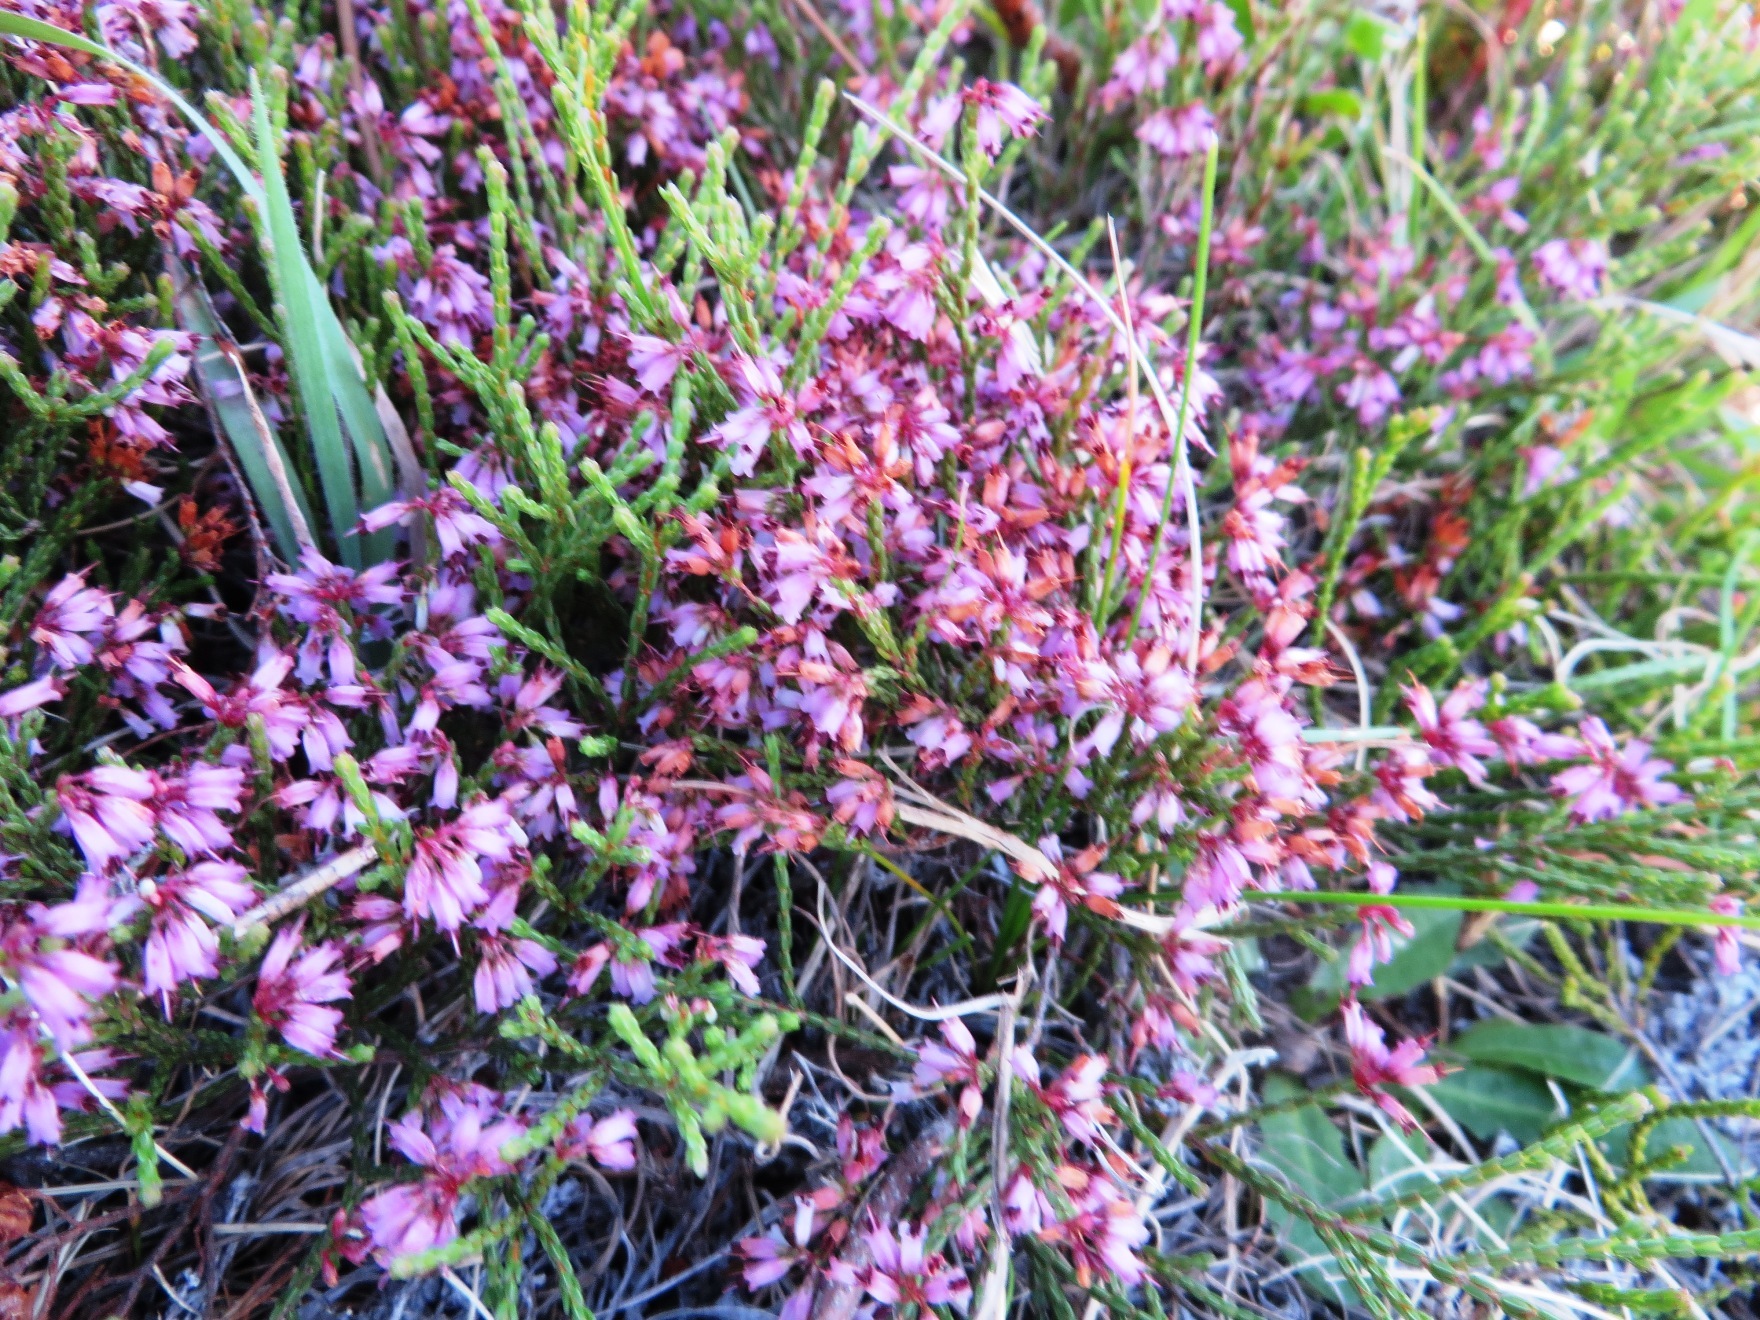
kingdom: Plantae
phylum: Tracheophyta
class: Magnoliopsida
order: Ericales
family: Ericaceae
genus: Erica
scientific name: Erica equisetifolia
